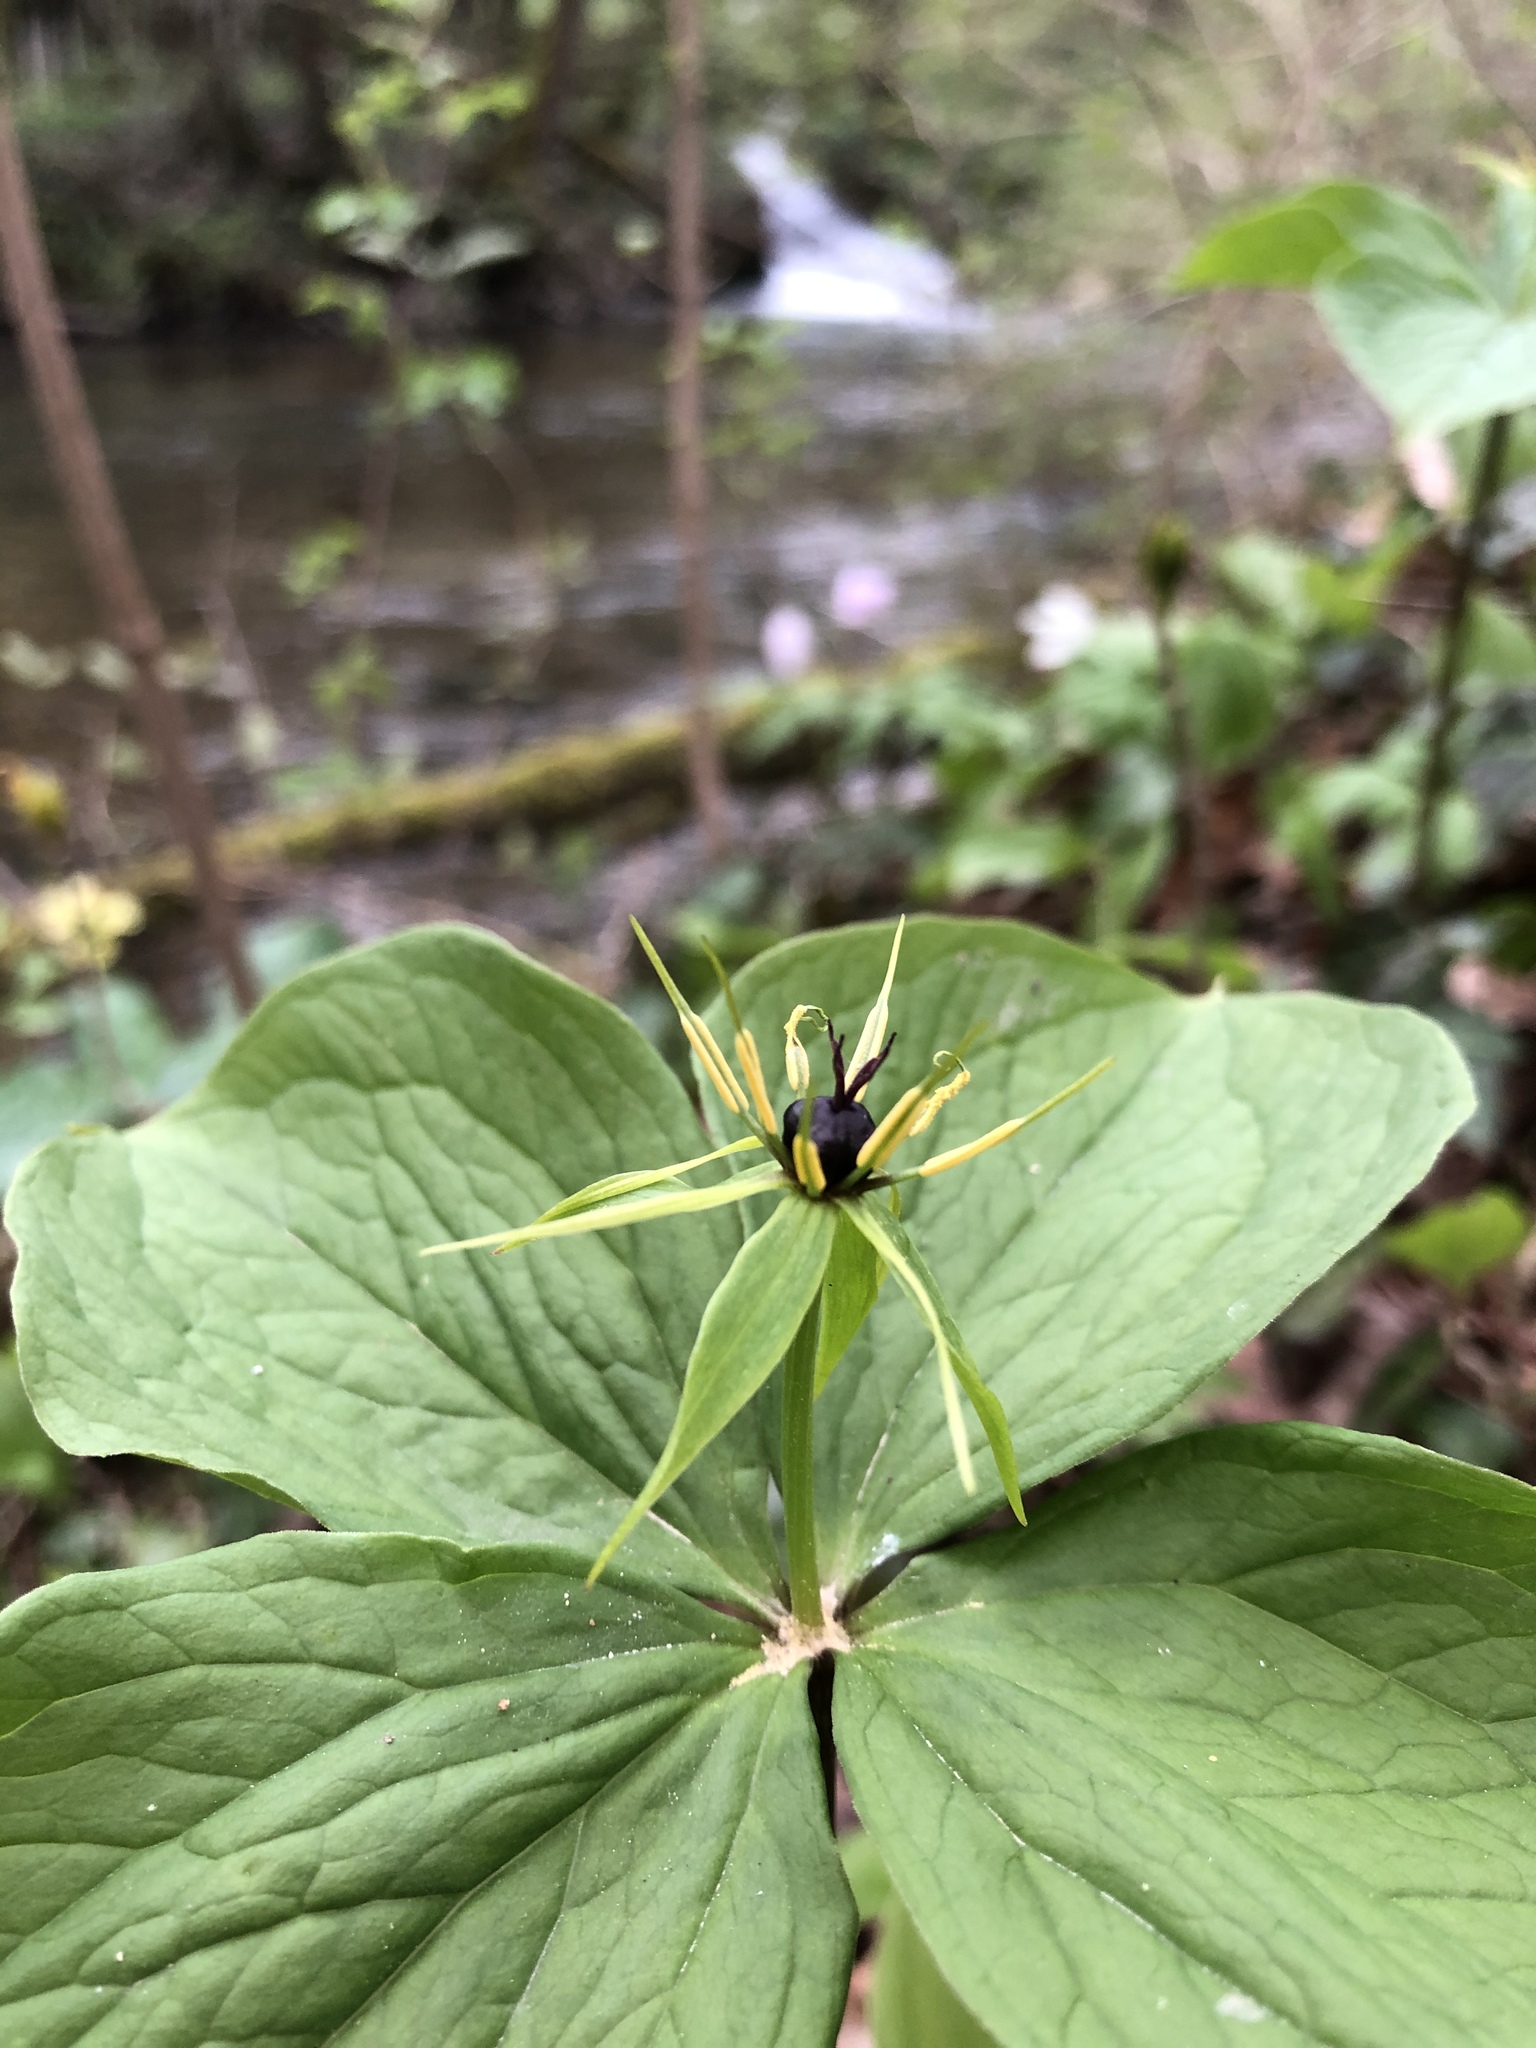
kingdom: Plantae
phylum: Tracheophyta
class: Liliopsida
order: Liliales
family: Melanthiaceae
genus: Paris
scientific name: Paris quadrifolia
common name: Herb-paris
